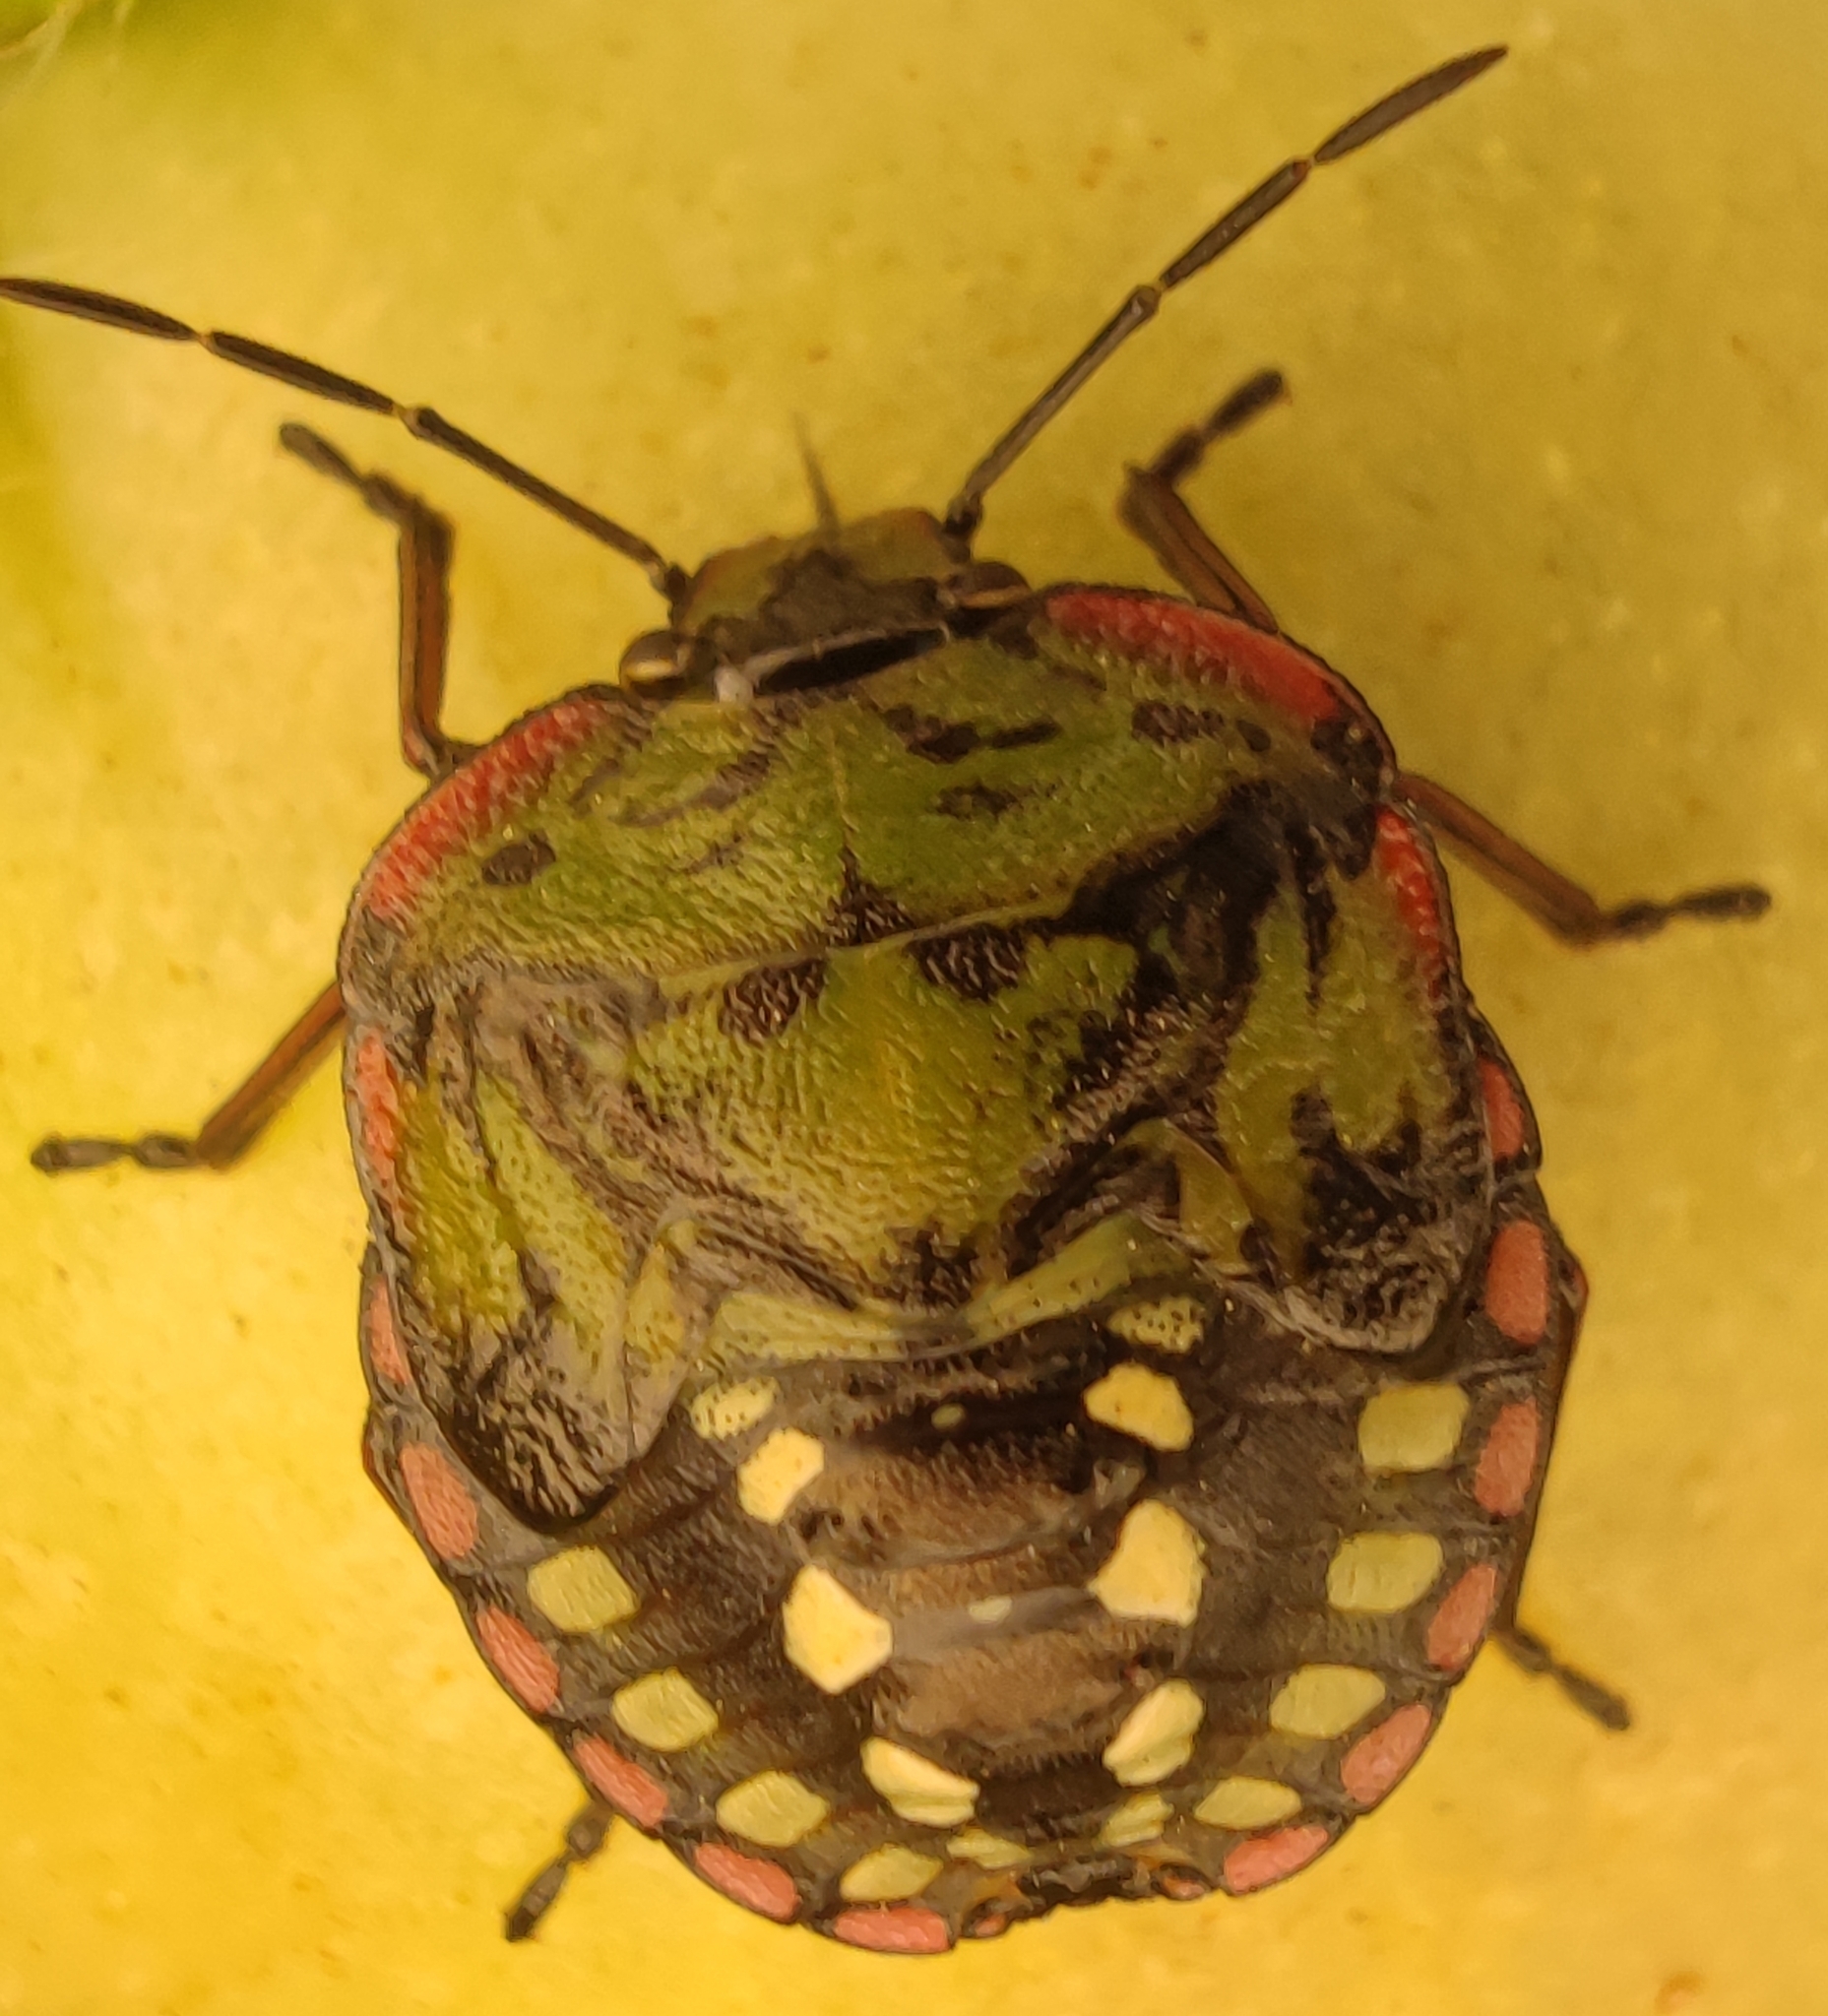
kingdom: Animalia
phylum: Arthropoda
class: Insecta
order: Hemiptera
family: Pentatomidae
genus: Nezara
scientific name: Nezara viridula
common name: Southern green stink bug
